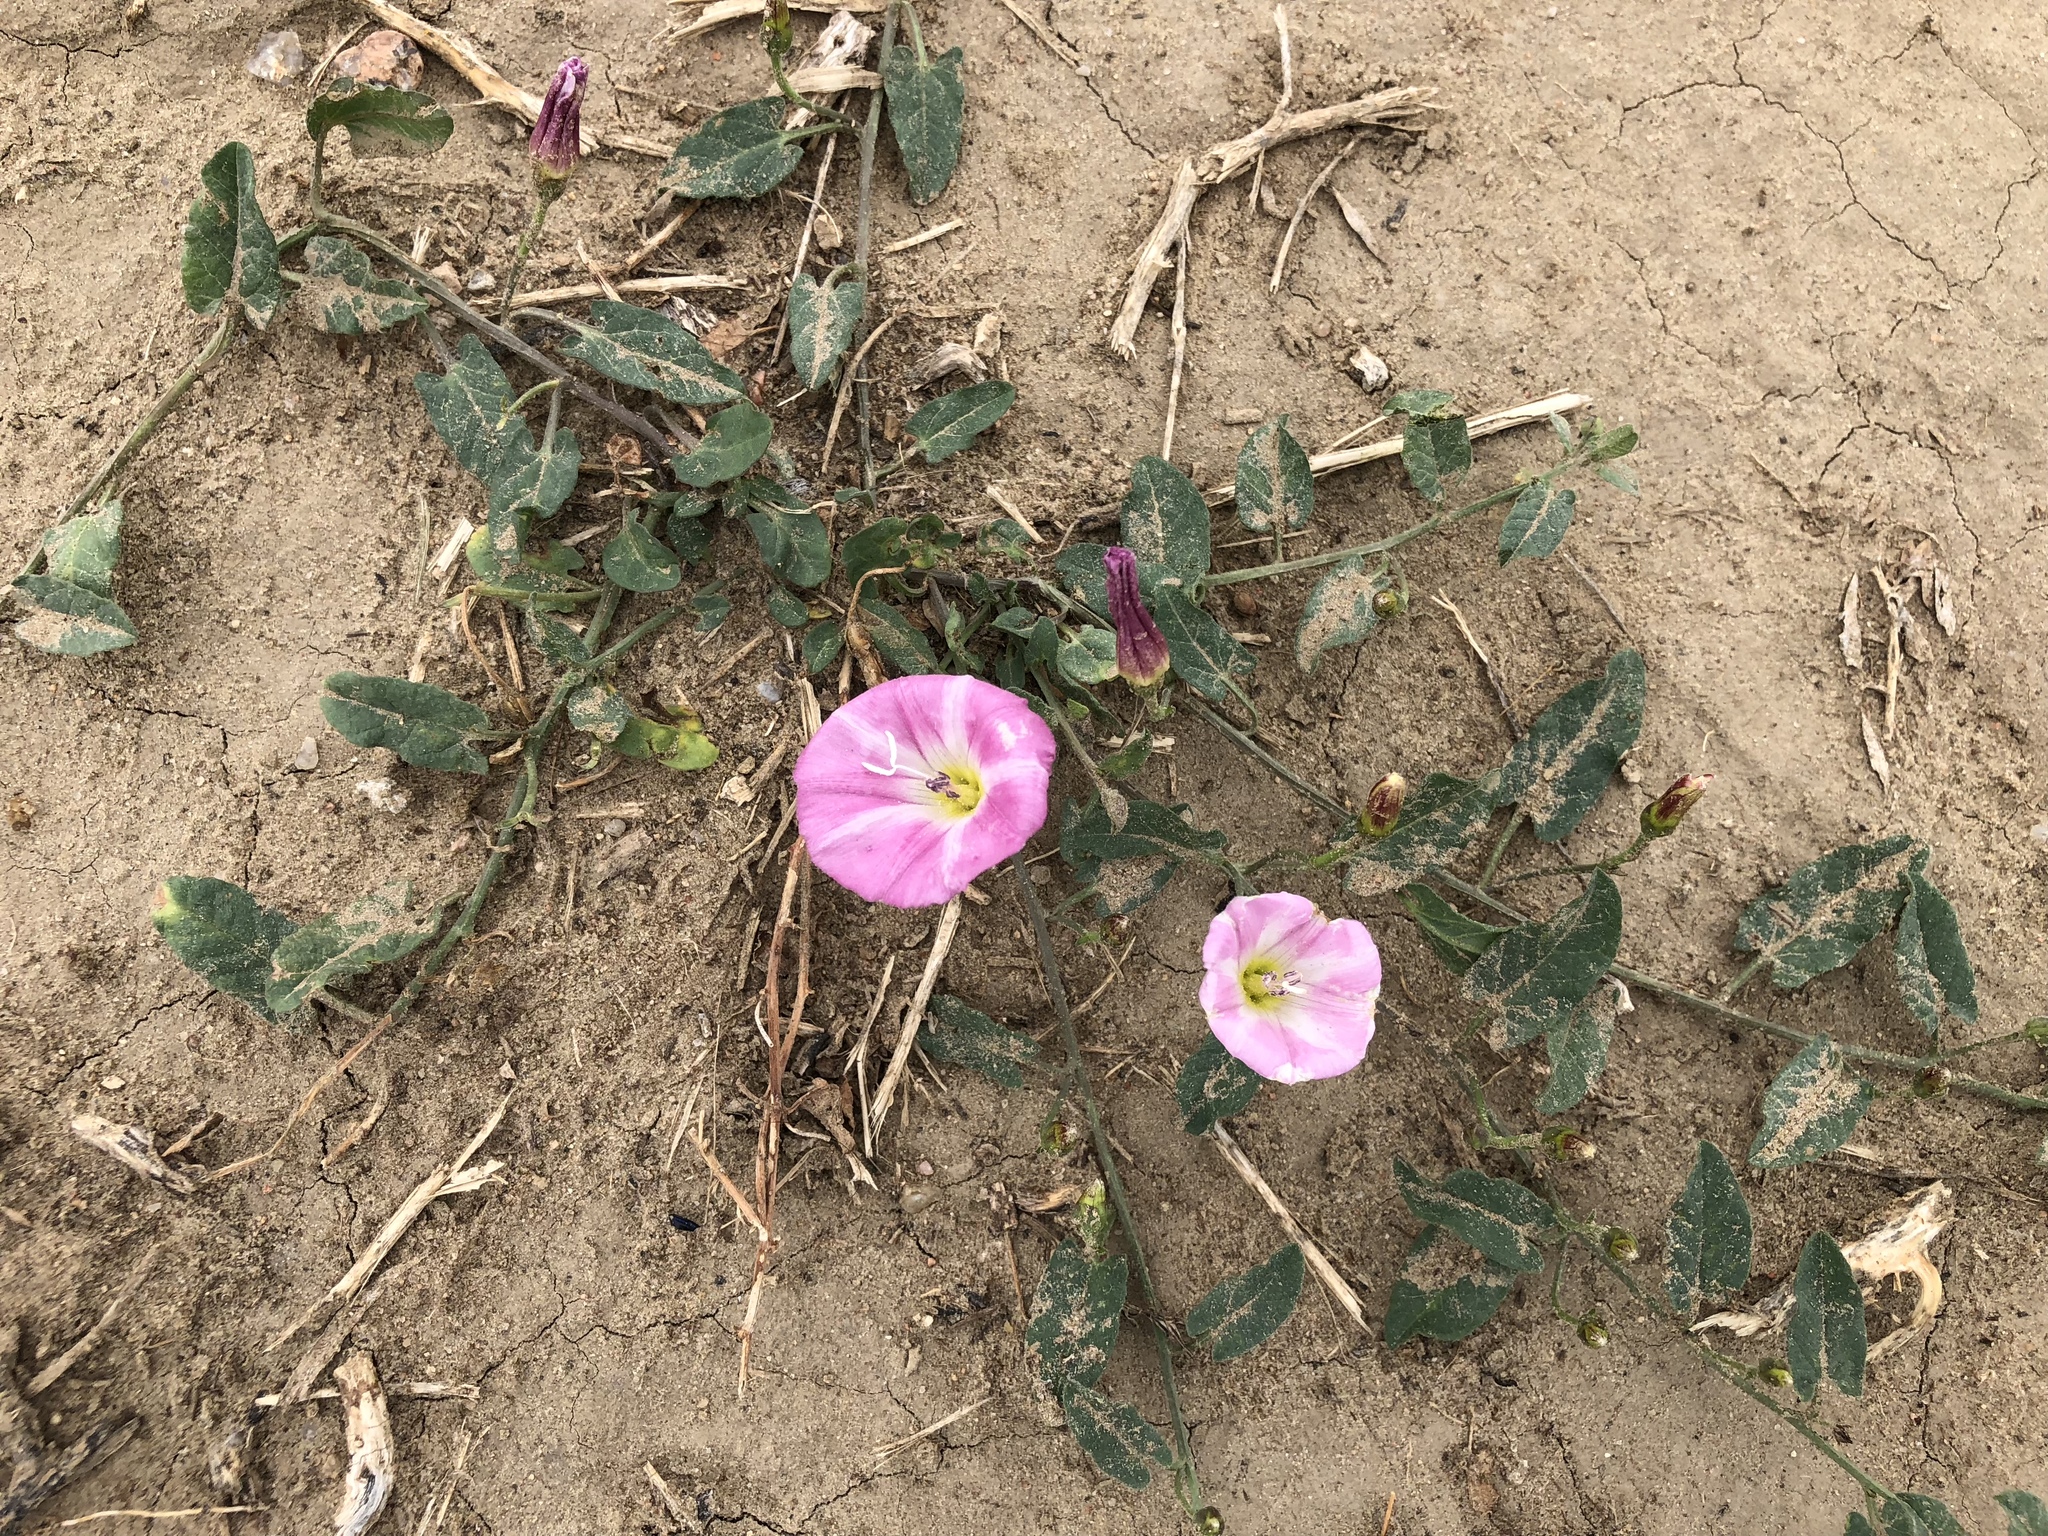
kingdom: Plantae
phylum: Tracheophyta
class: Magnoliopsida
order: Solanales
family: Convolvulaceae
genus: Convolvulus
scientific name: Convolvulus arvensis
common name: Field bindweed
